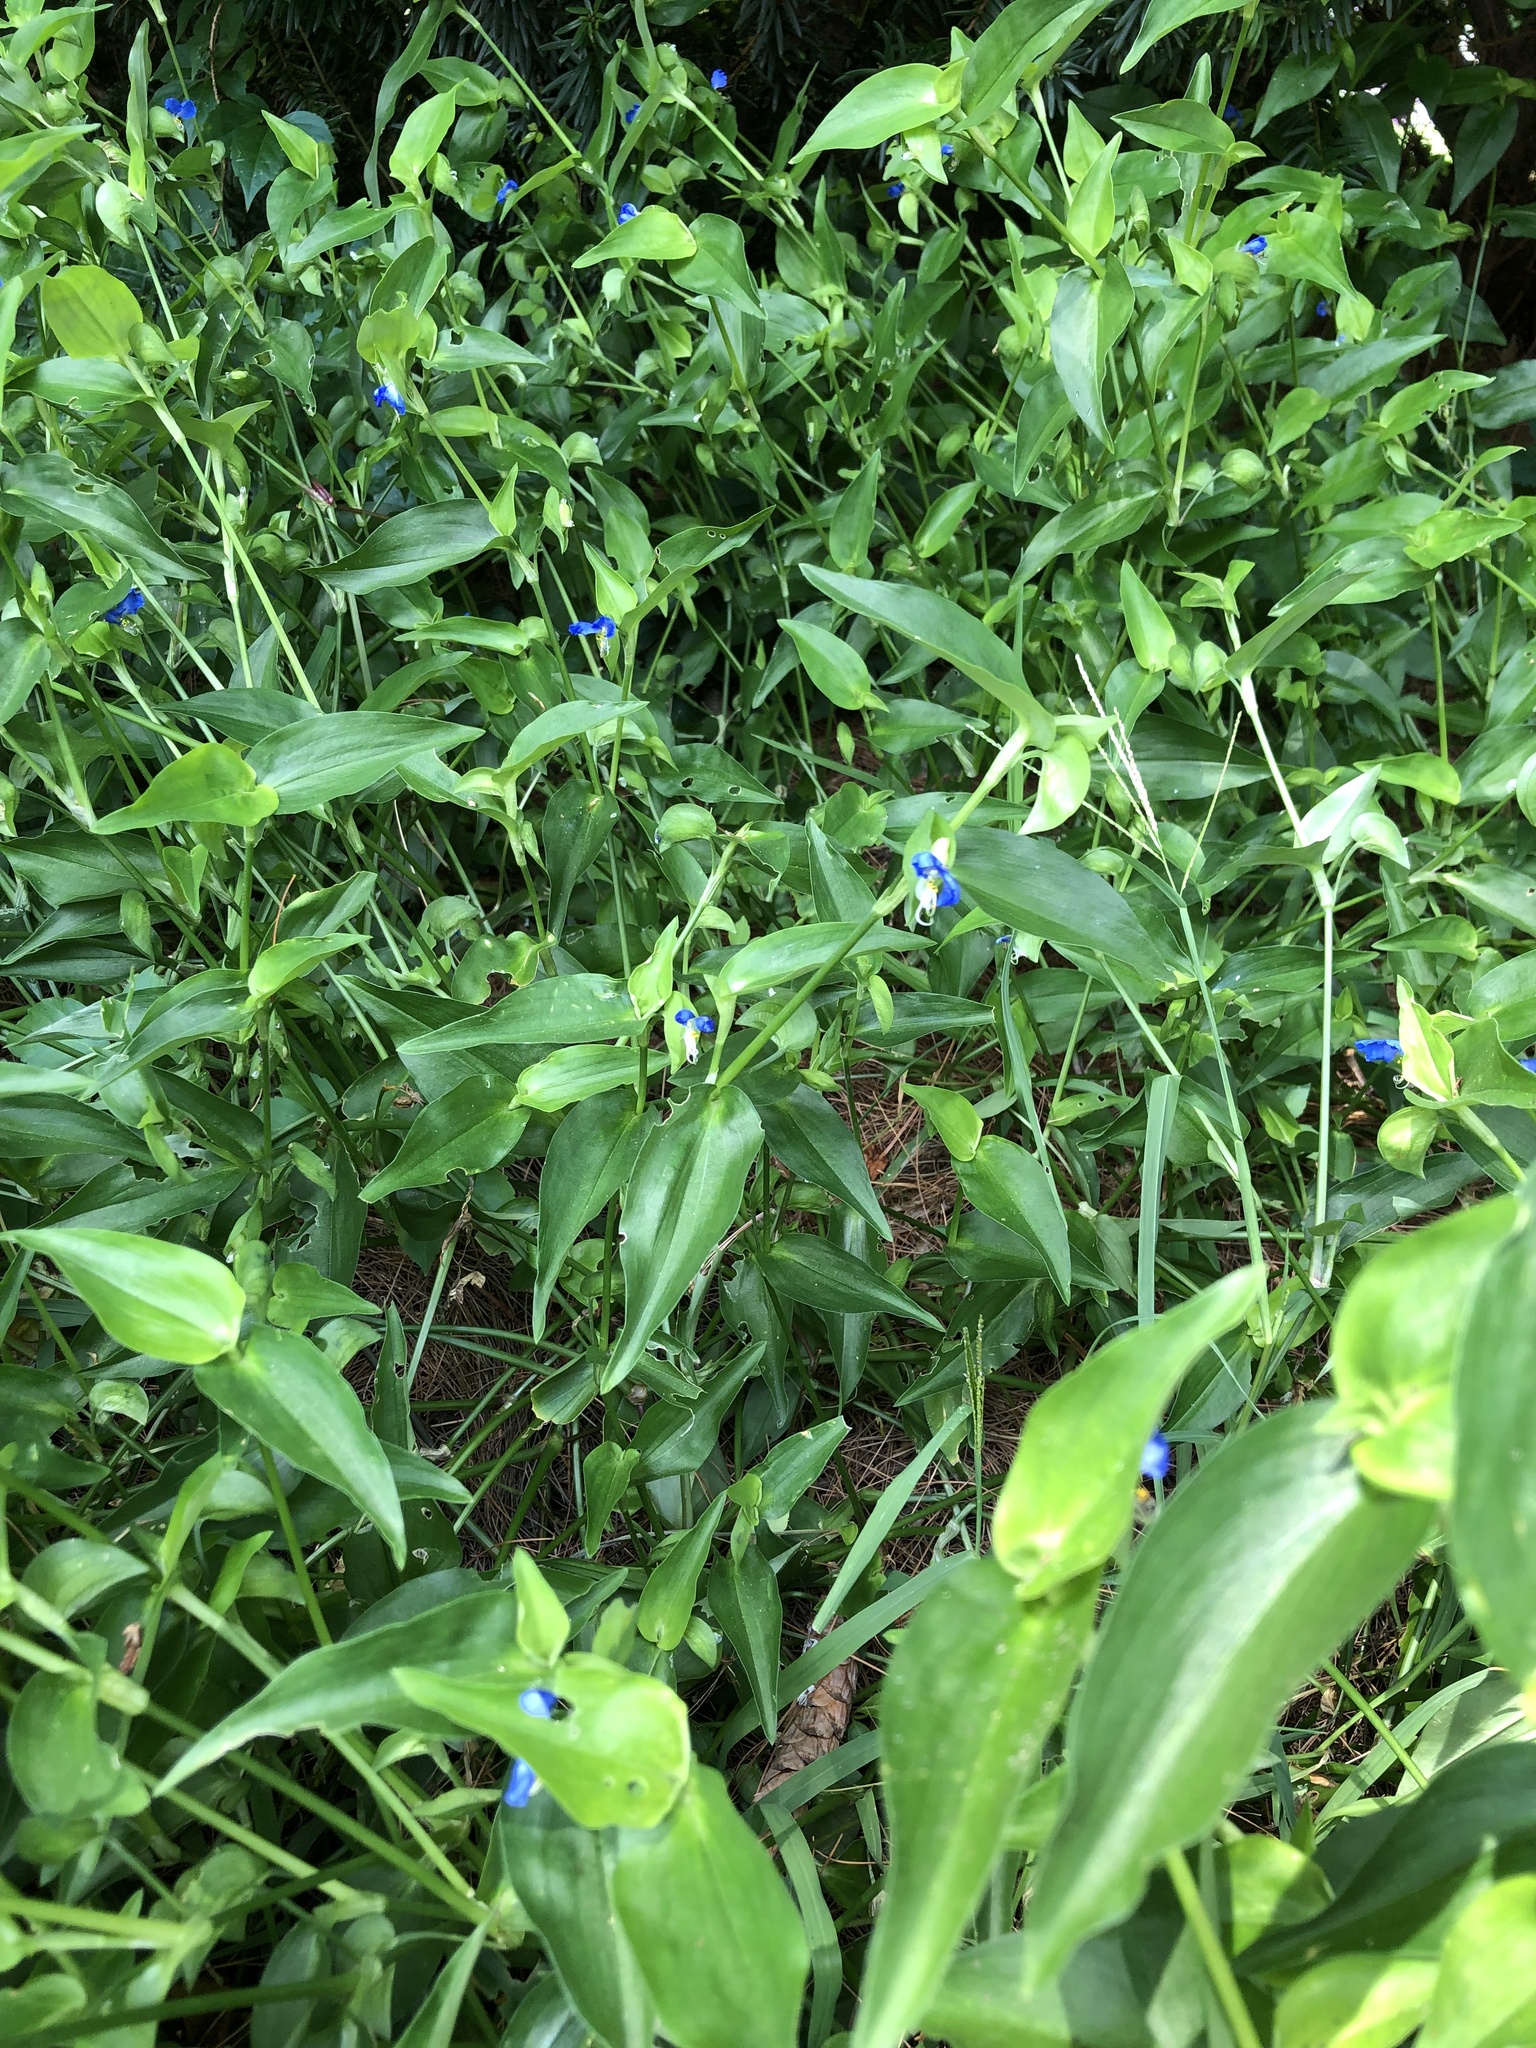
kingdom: Plantae
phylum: Tracheophyta
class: Liliopsida
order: Commelinales
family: Commelinaceae
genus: Commelina
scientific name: Commelina communis
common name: Asiatic dayflower
